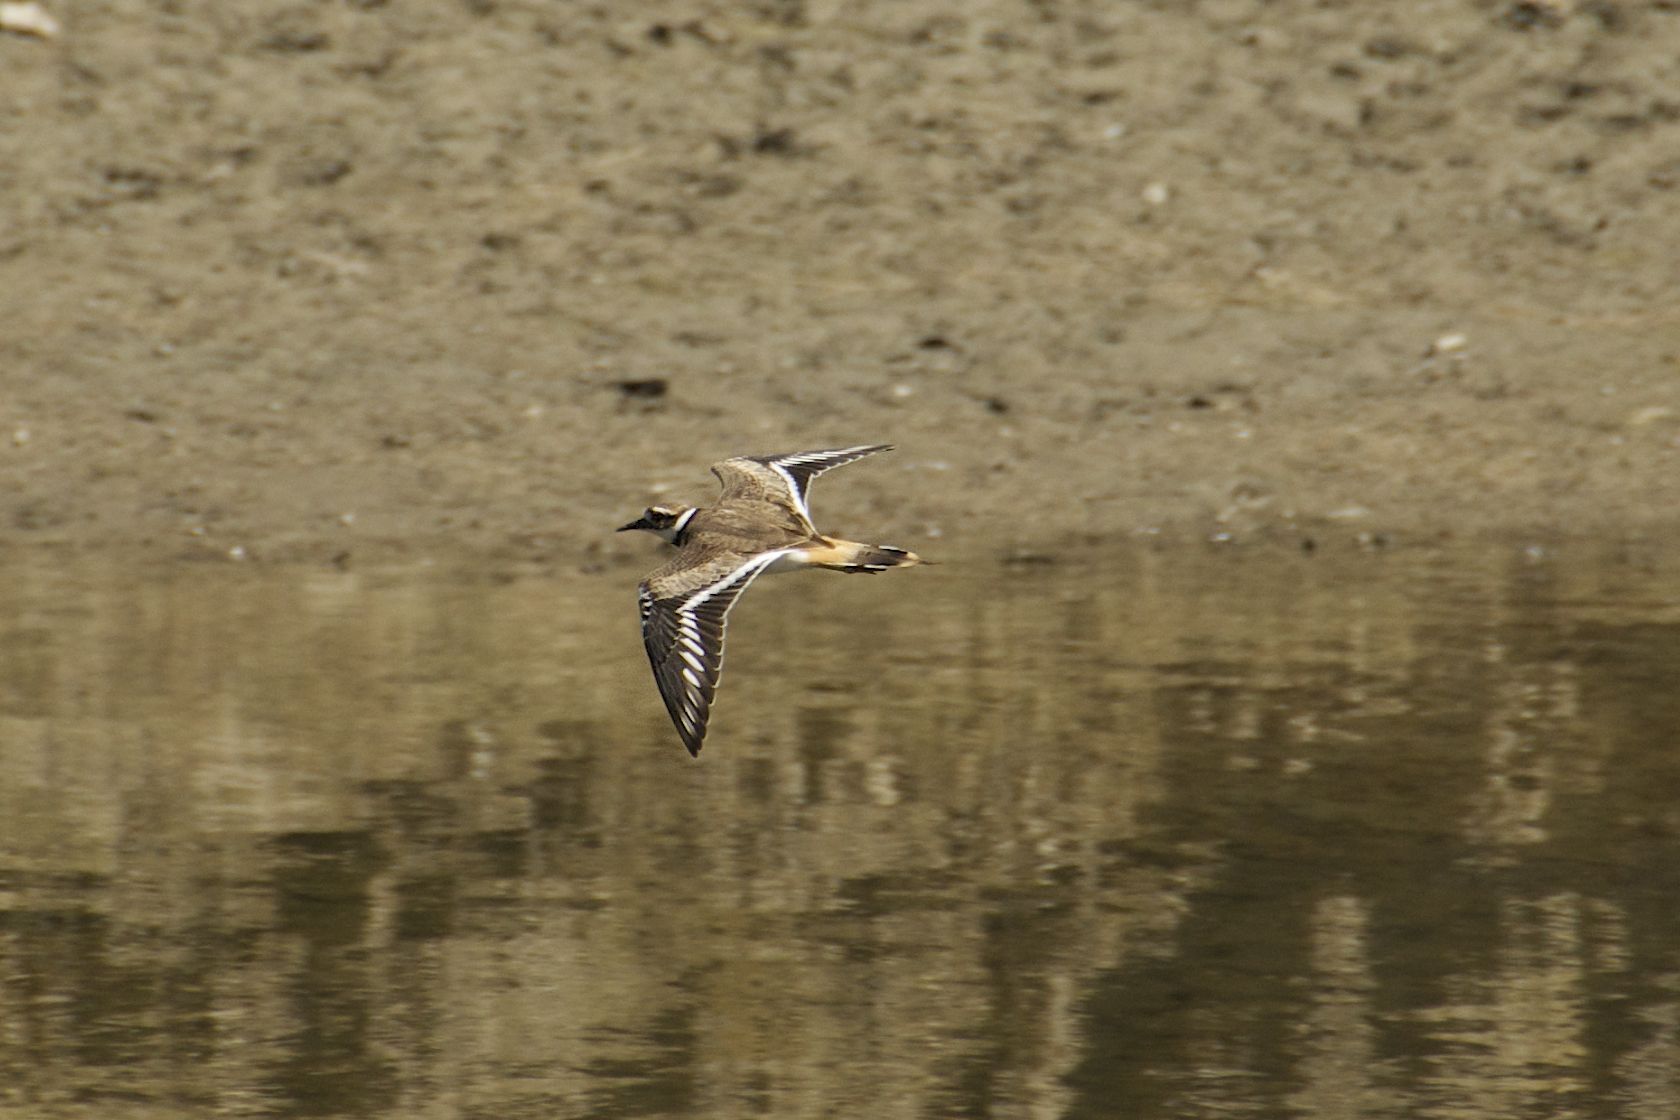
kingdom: Animalia
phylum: Chordata
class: Aves
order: Charadriiformes
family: Charadriidae
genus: Charadrius
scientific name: Charadrius vociferus
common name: Killdeer
